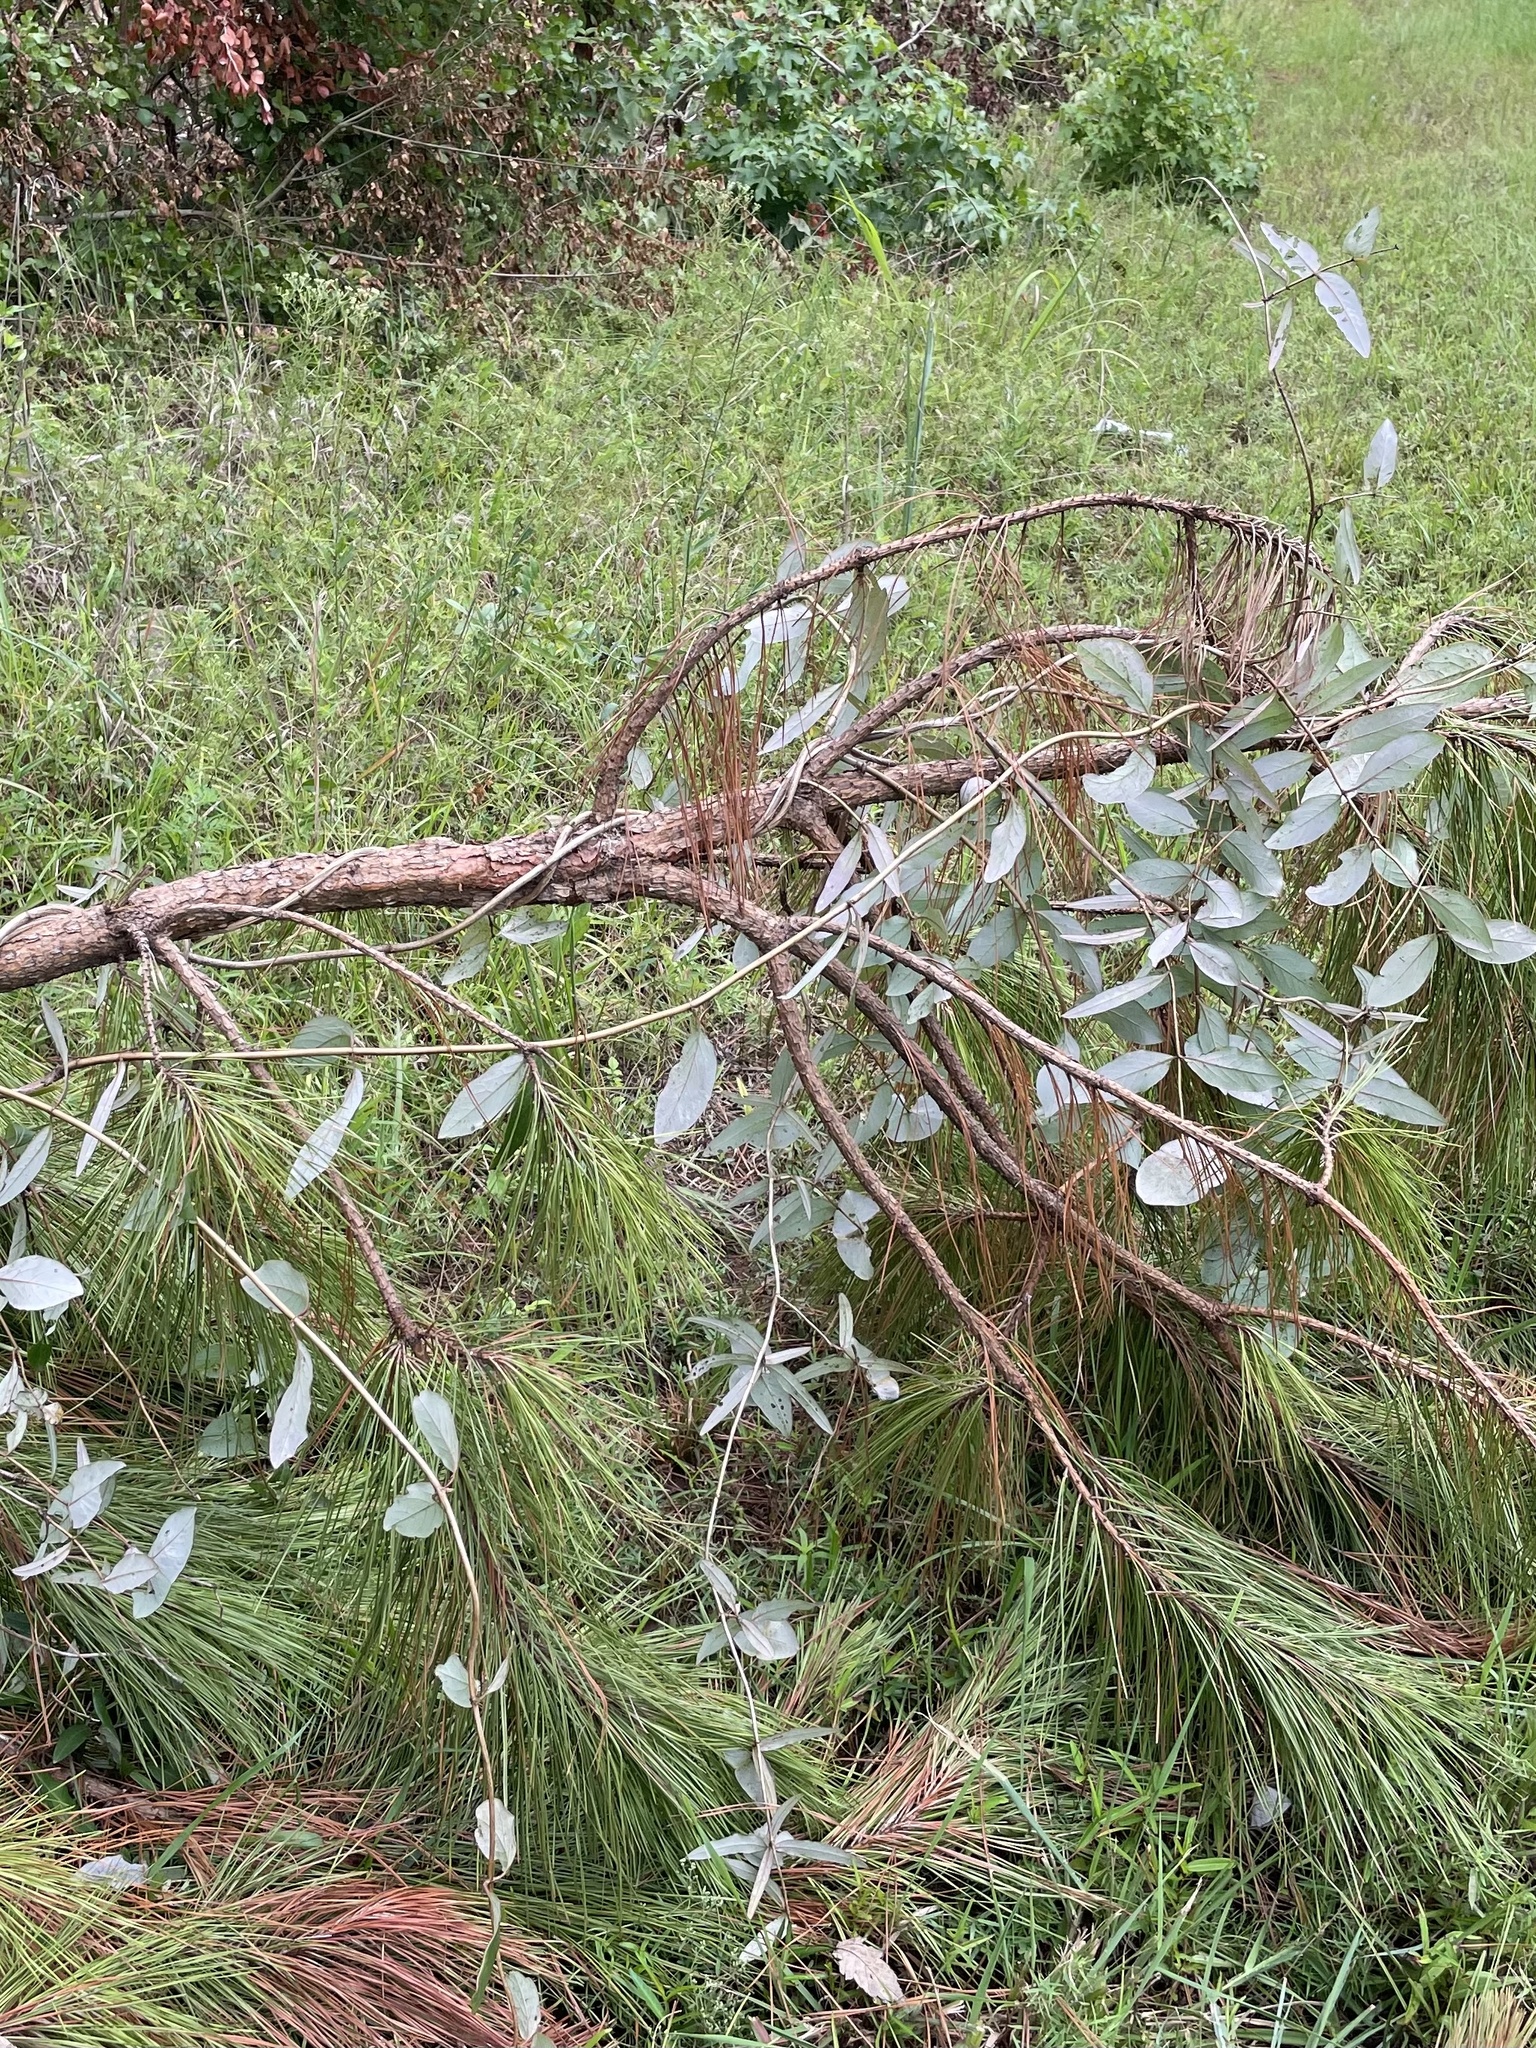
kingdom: Plantae
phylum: Tracheophyta
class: Magnoliopsida
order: Dipsacales
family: Caprifoliaceae
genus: Lonicera
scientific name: Lonicera sempervirens
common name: Coral honeysuckle
